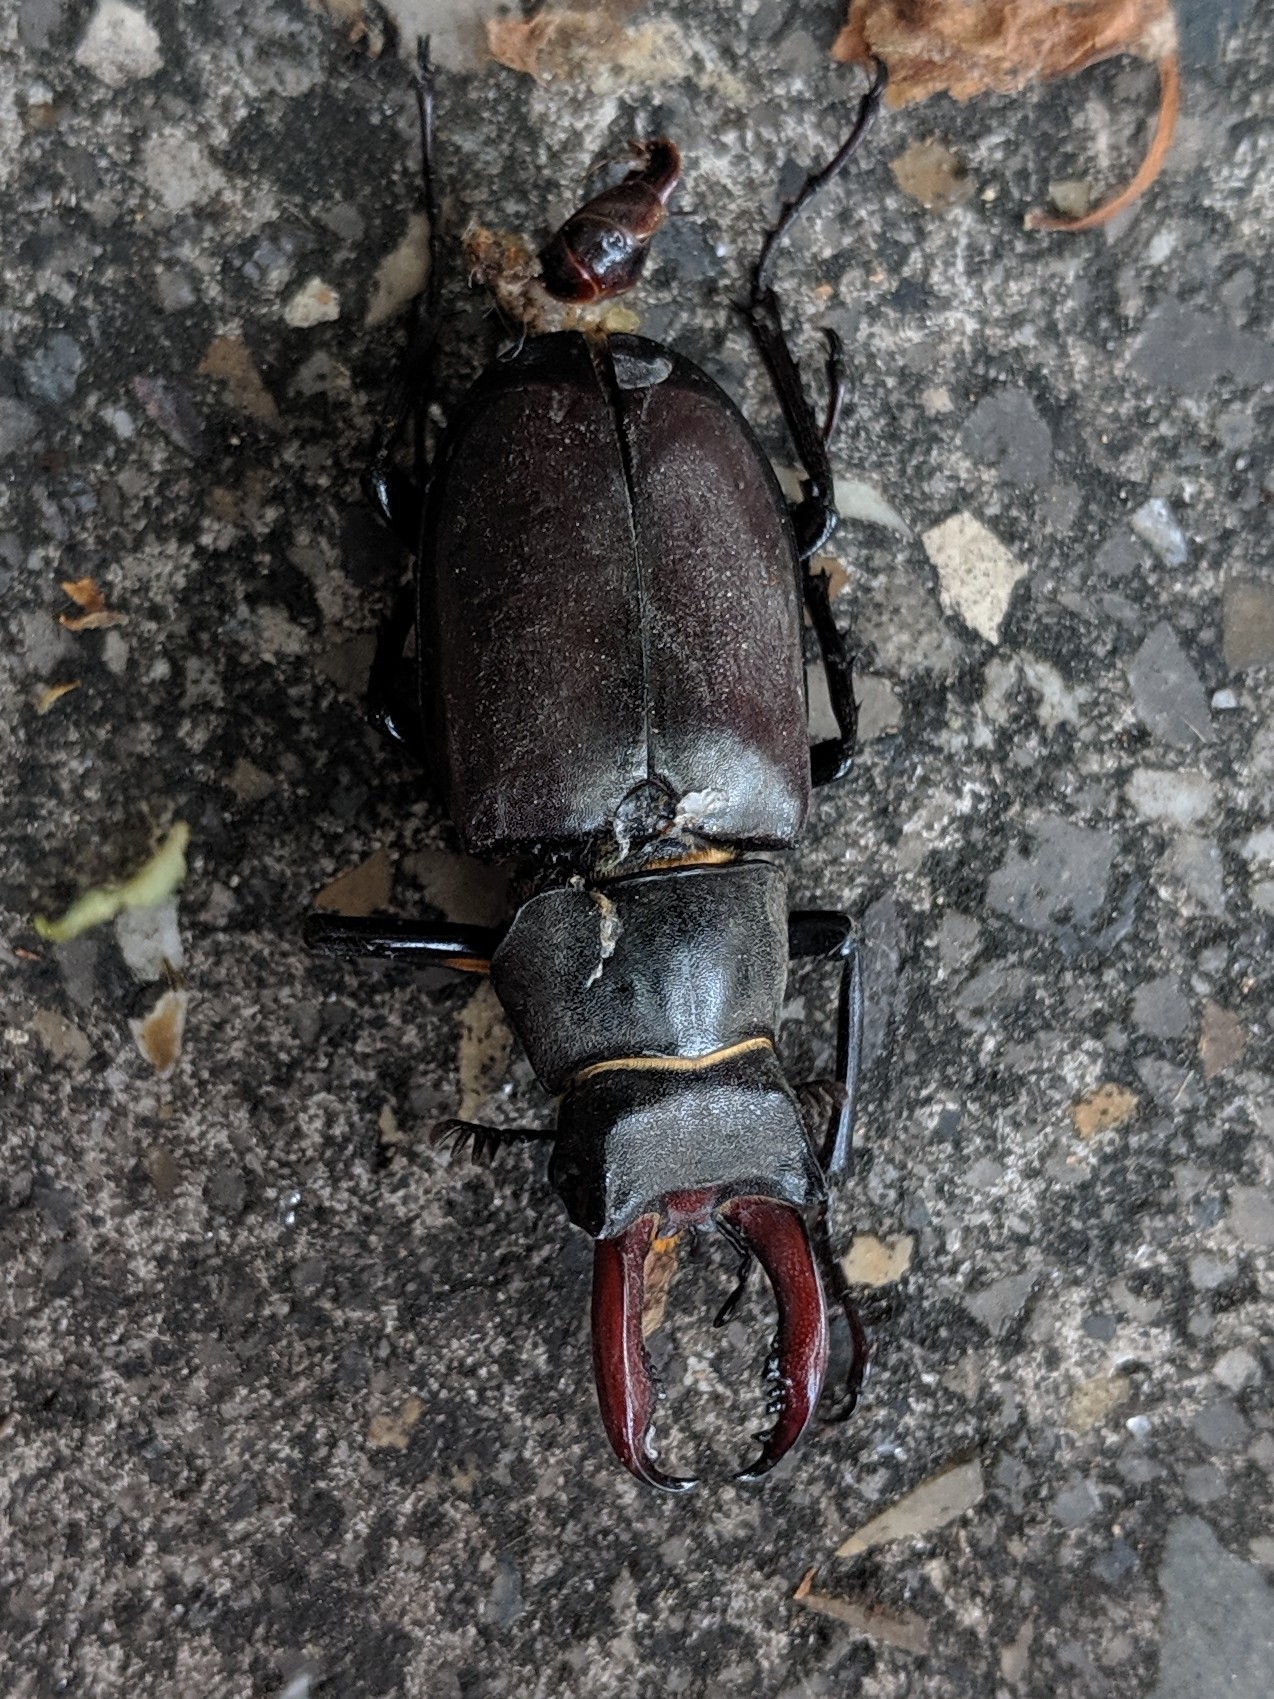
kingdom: Animalia
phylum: Arthropoda
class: Insecta
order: Coleoptera
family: Lucanidae
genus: Lucanus
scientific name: Lucanus cervus
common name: Stag beetle
